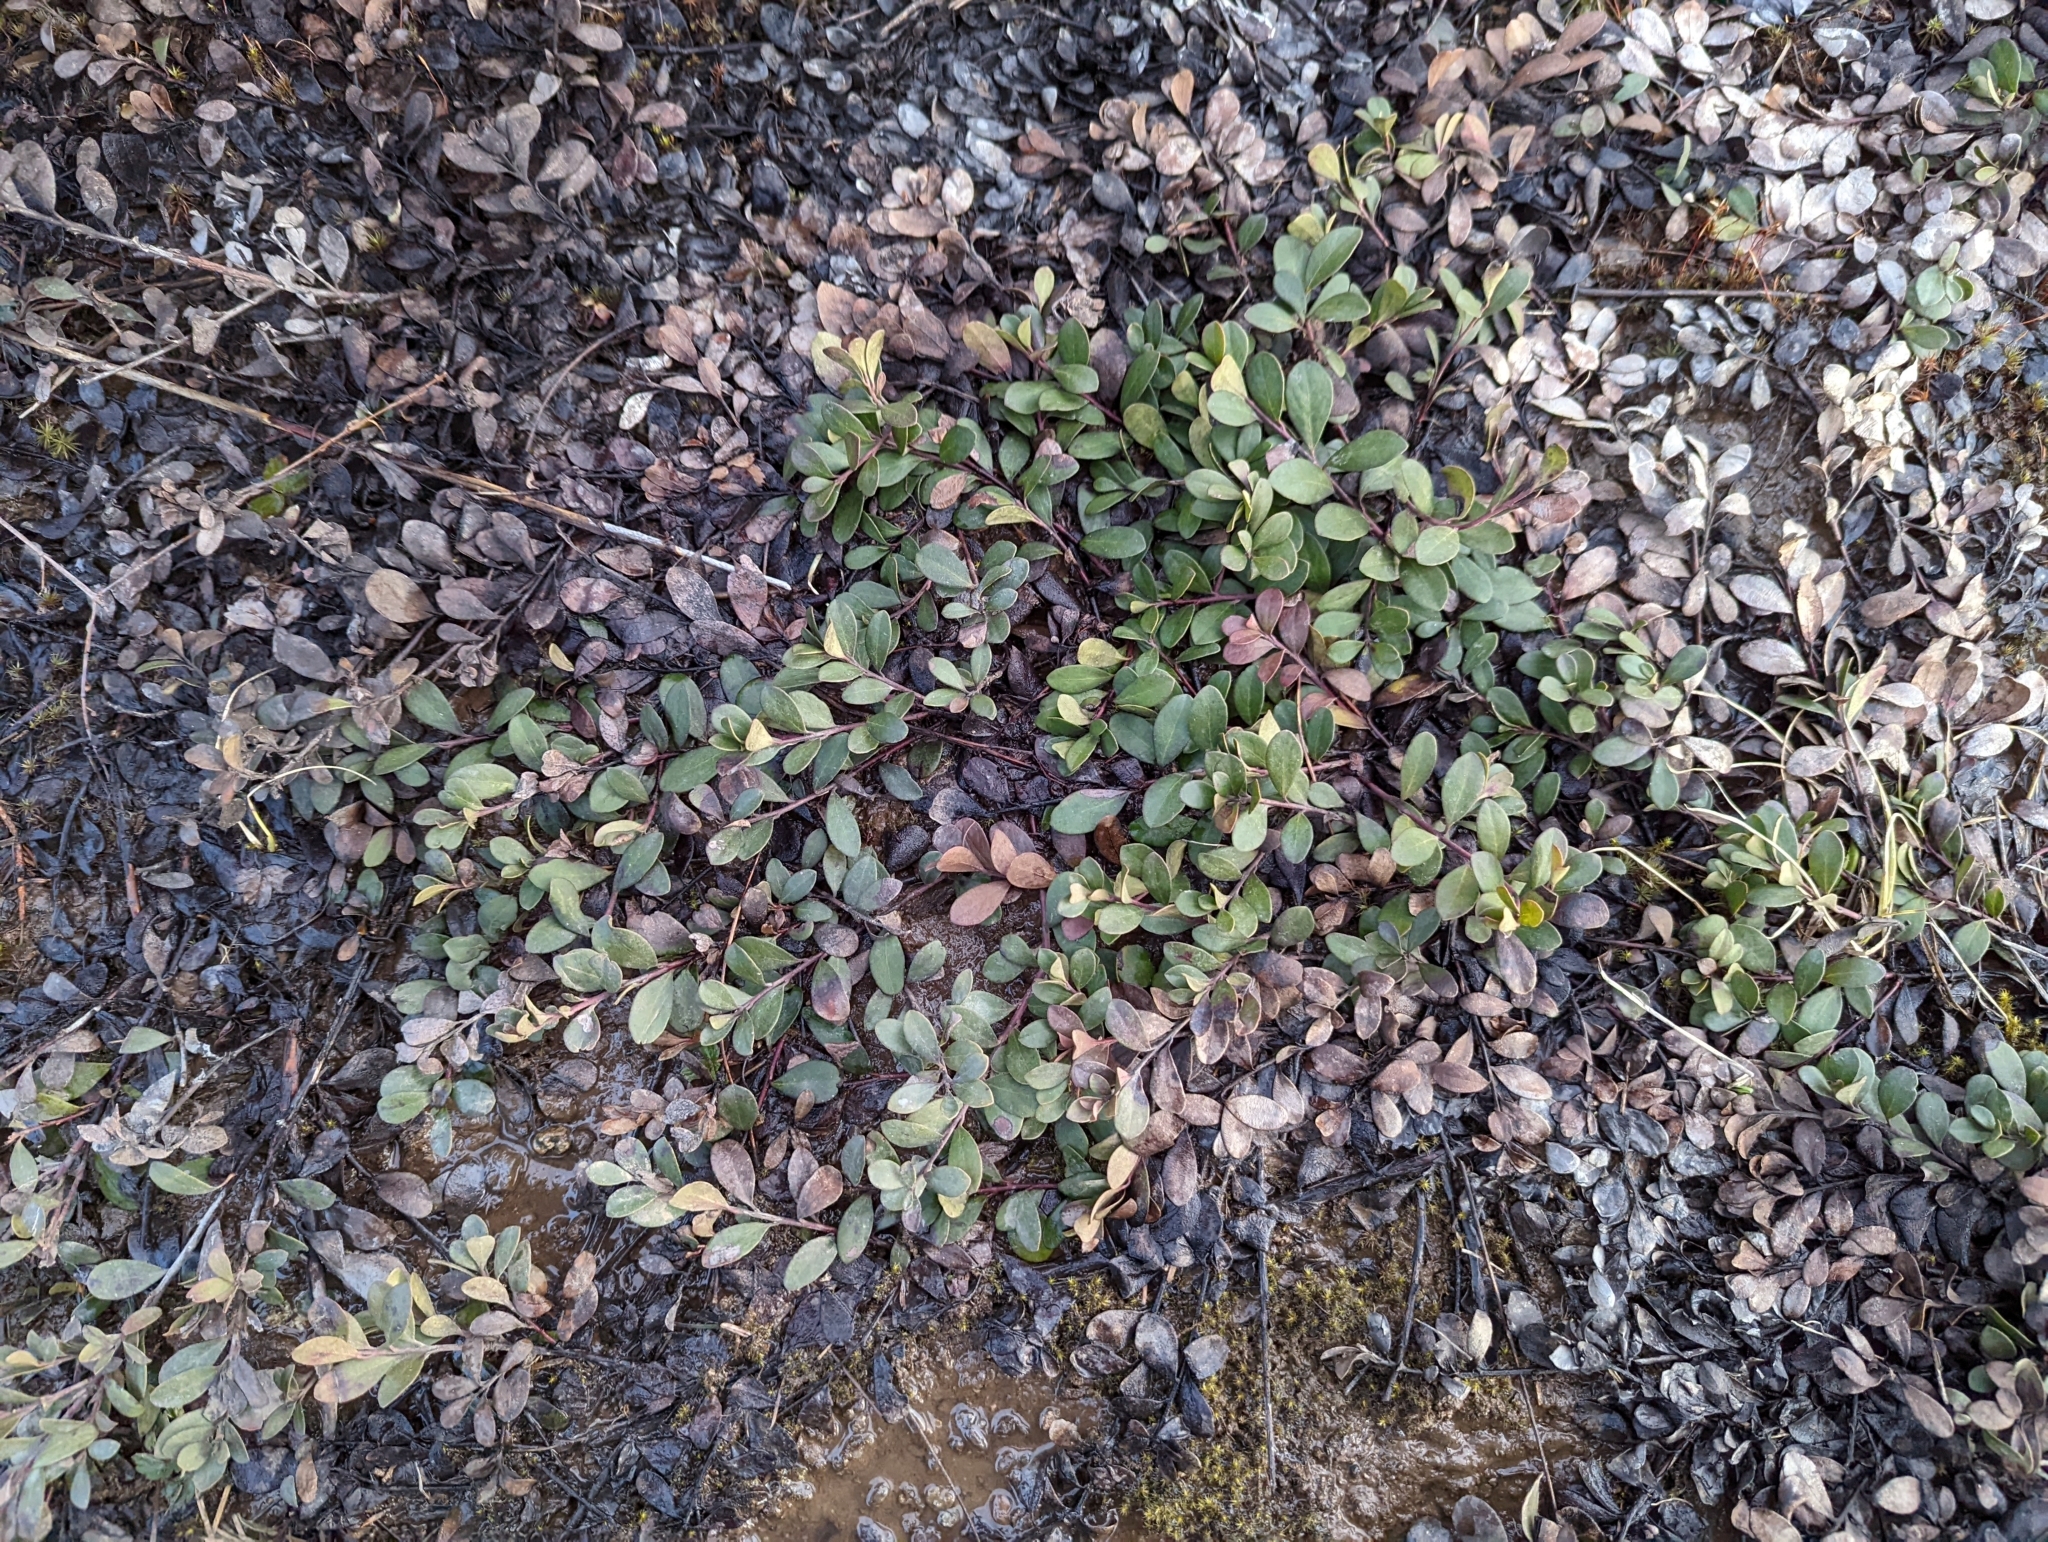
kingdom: Plantae
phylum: Tracheophyta
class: Magnoliopsida
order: Ericales
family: Ericaceae
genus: Arctostaphylos
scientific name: Arctostaphylos uva-ursi
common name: Bearberry
